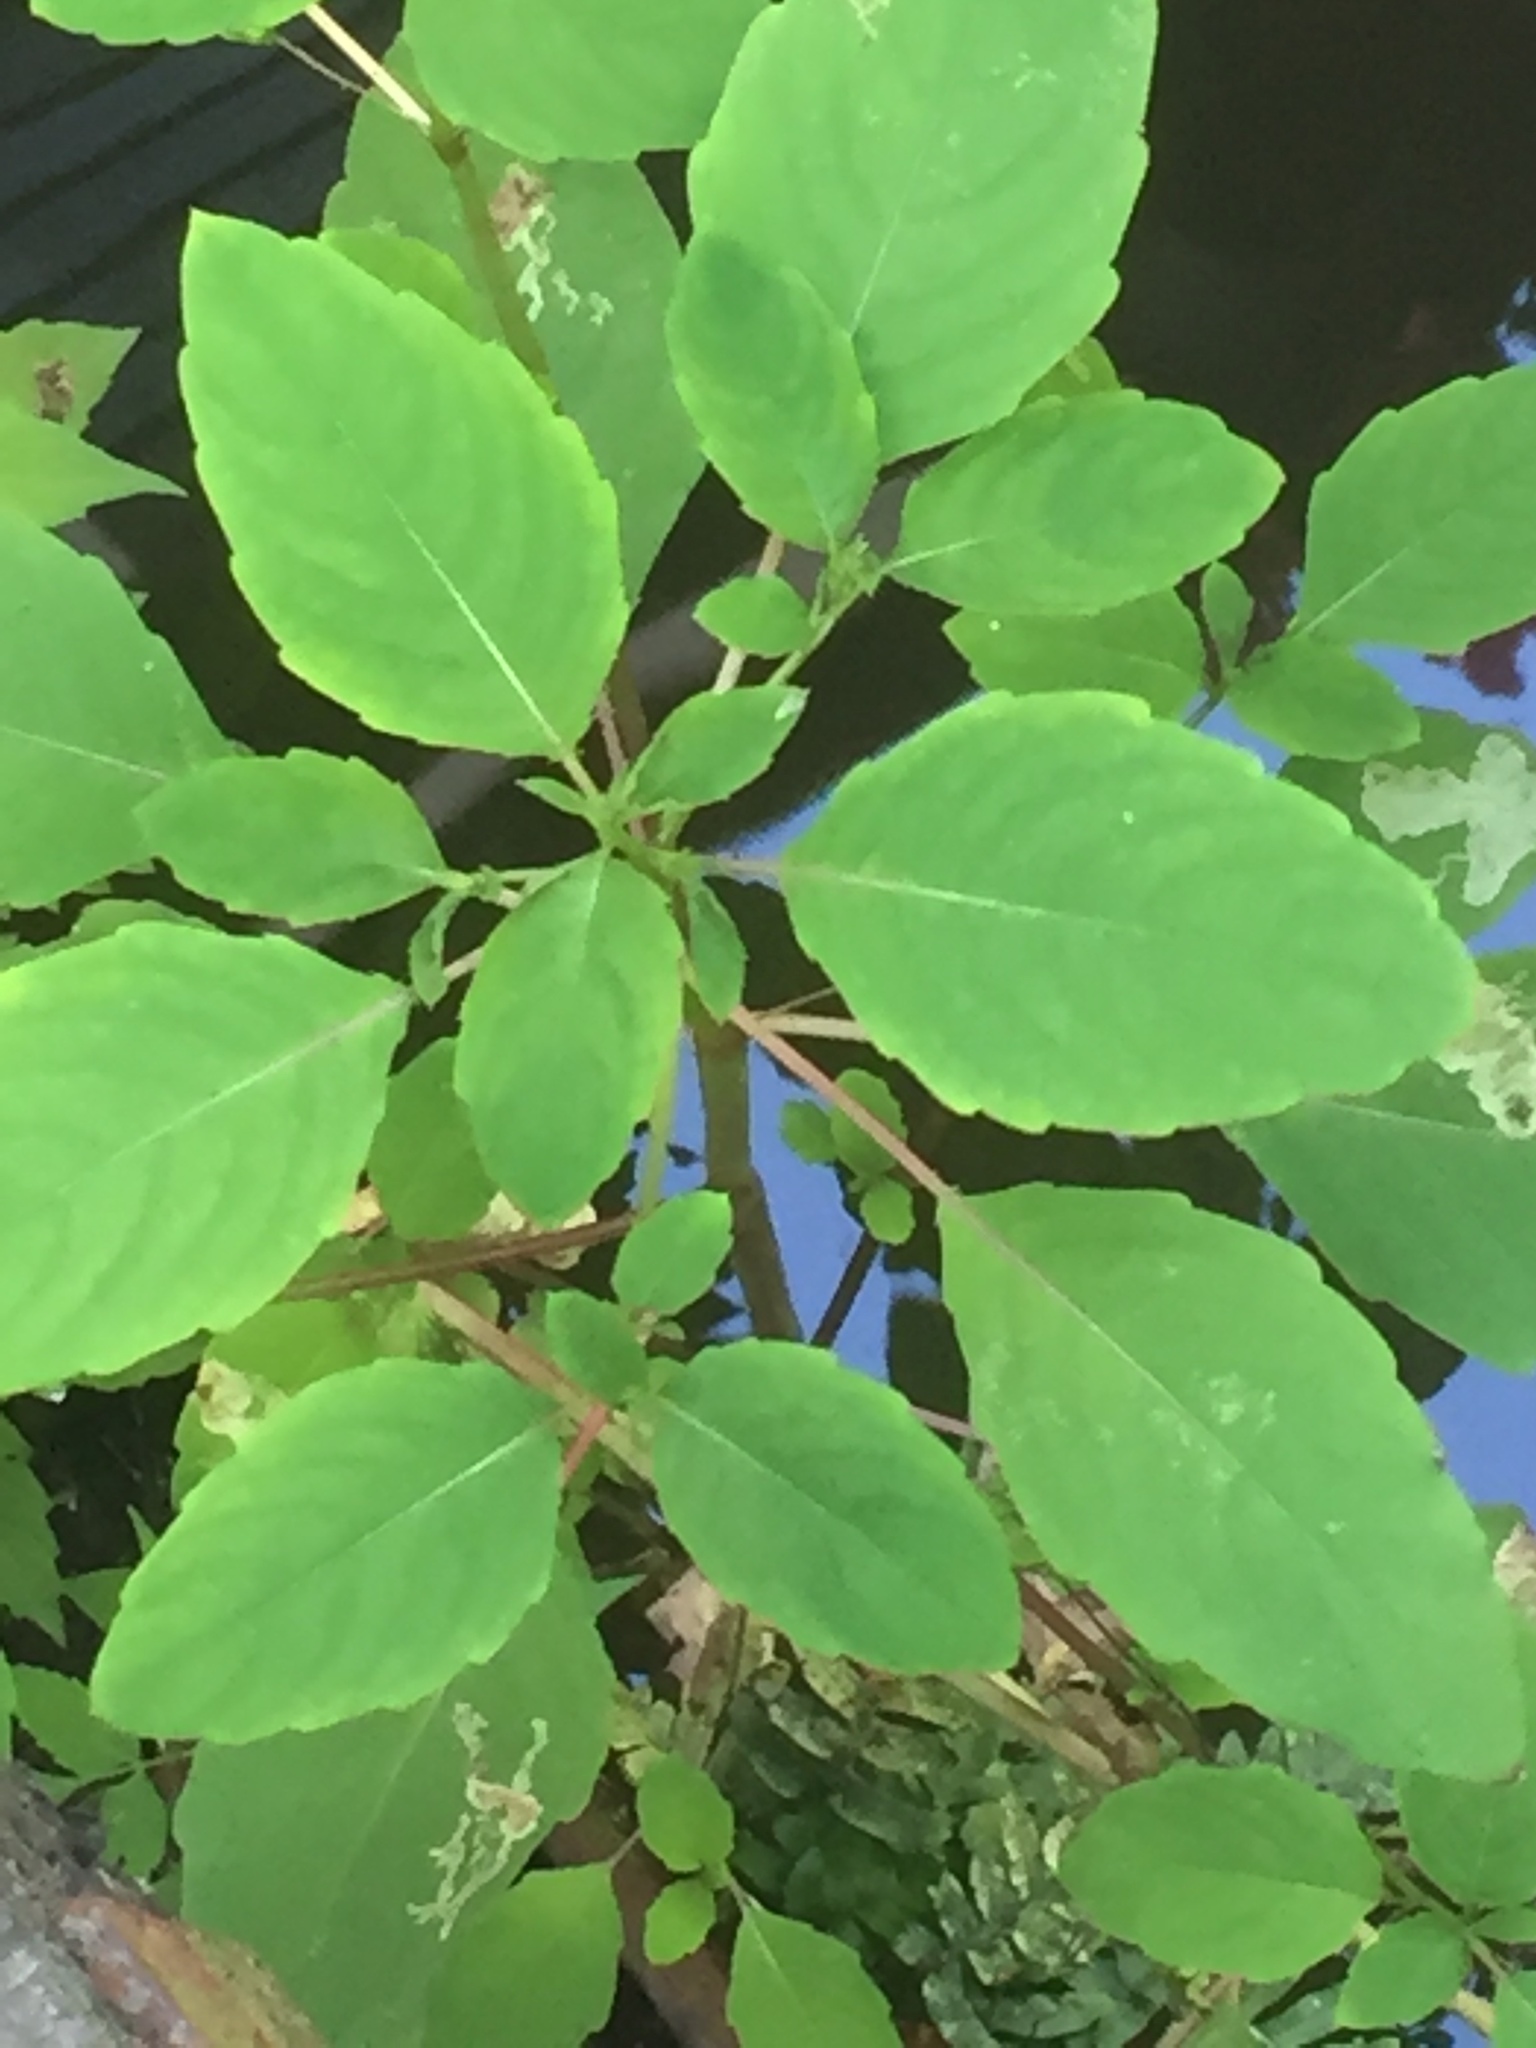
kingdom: Plantae
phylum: Tracheophyta
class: Magnoliopsida
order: Ericales
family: Balsaminaceae
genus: Impatiens
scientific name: Impatiens capensis
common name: Orange balsam
